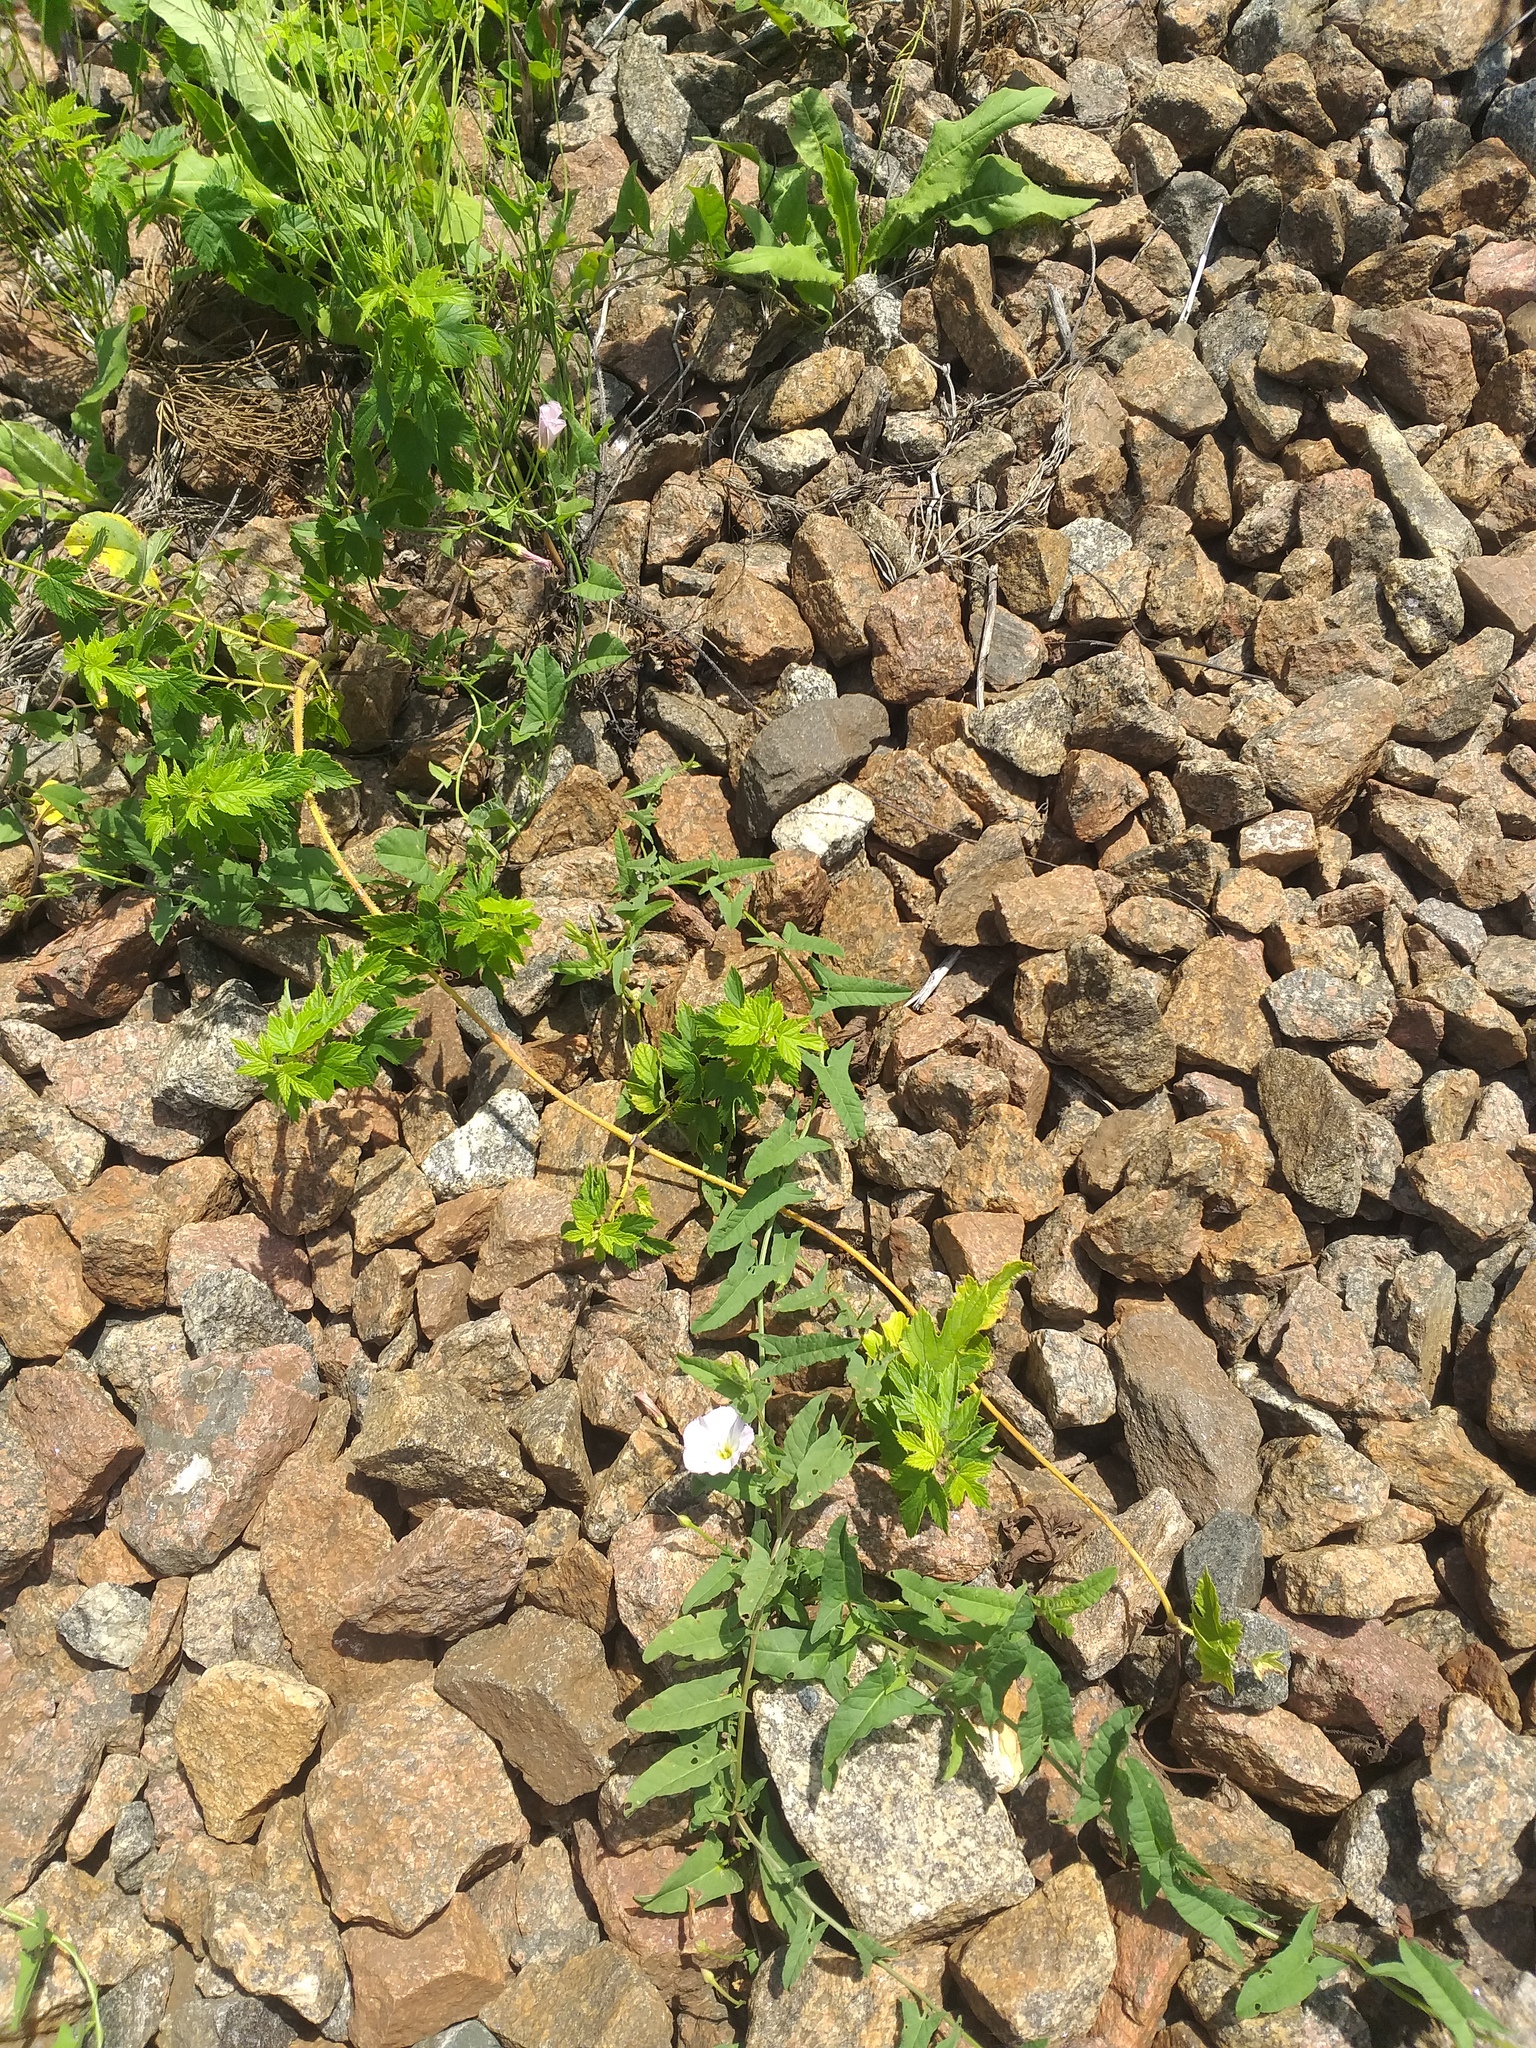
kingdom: Plantae
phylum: Tracheophyta
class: Magnoliopsida
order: Rosales
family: Cannabaceae
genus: Humulus
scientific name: Humulus lupulus
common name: Hop
